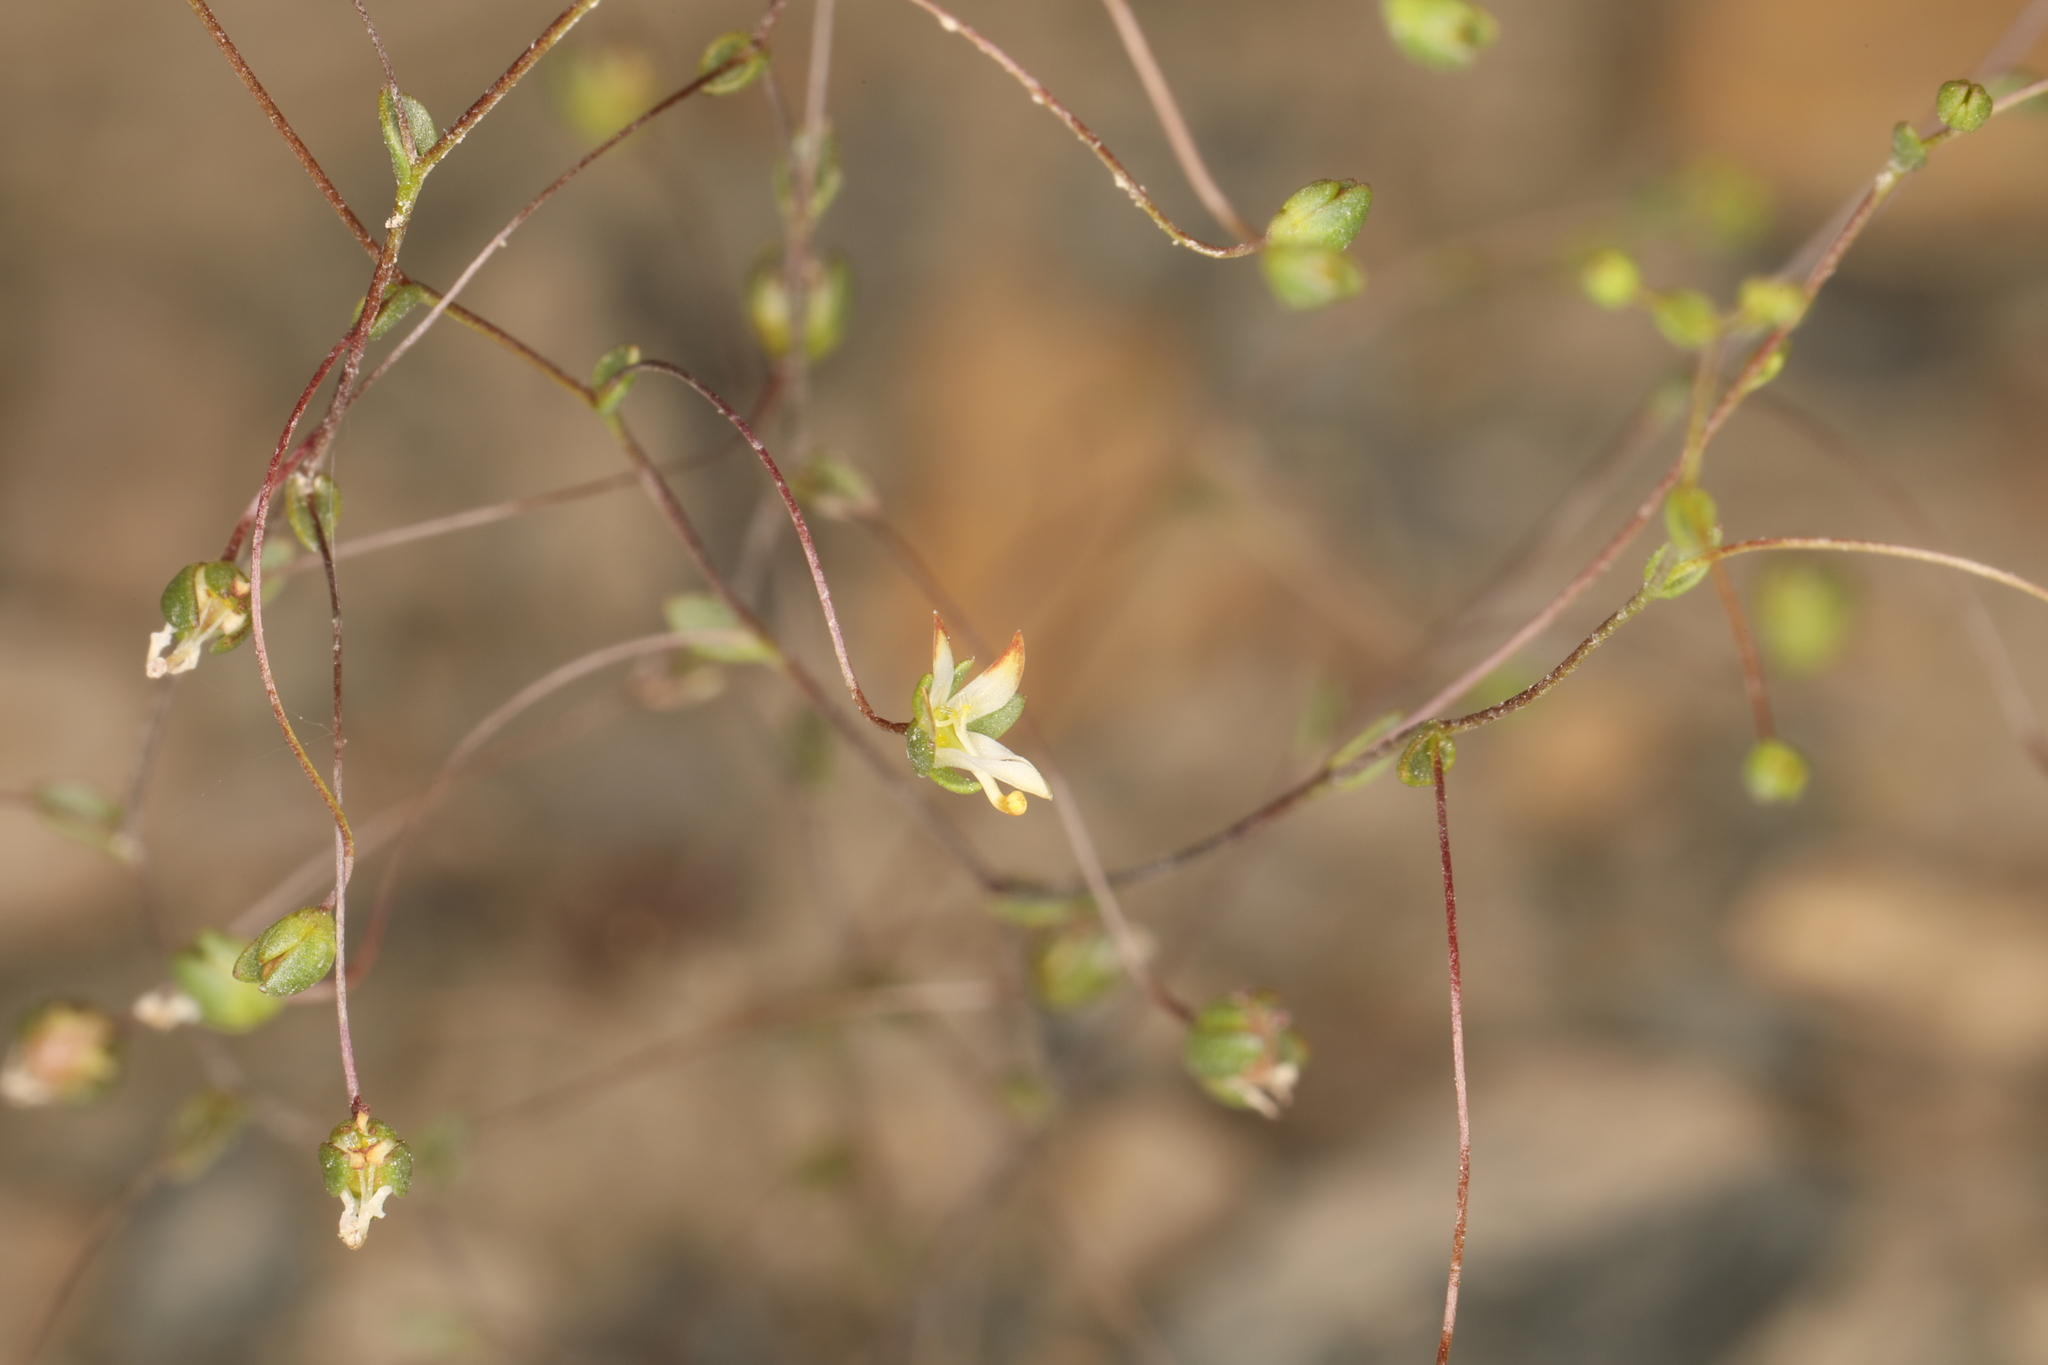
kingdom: Plantae
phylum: Tracheophyta
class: Magnoliopsida
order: Asterales
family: Campanulaceae
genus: Nemacladus
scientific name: Nemacladus morefieldii
